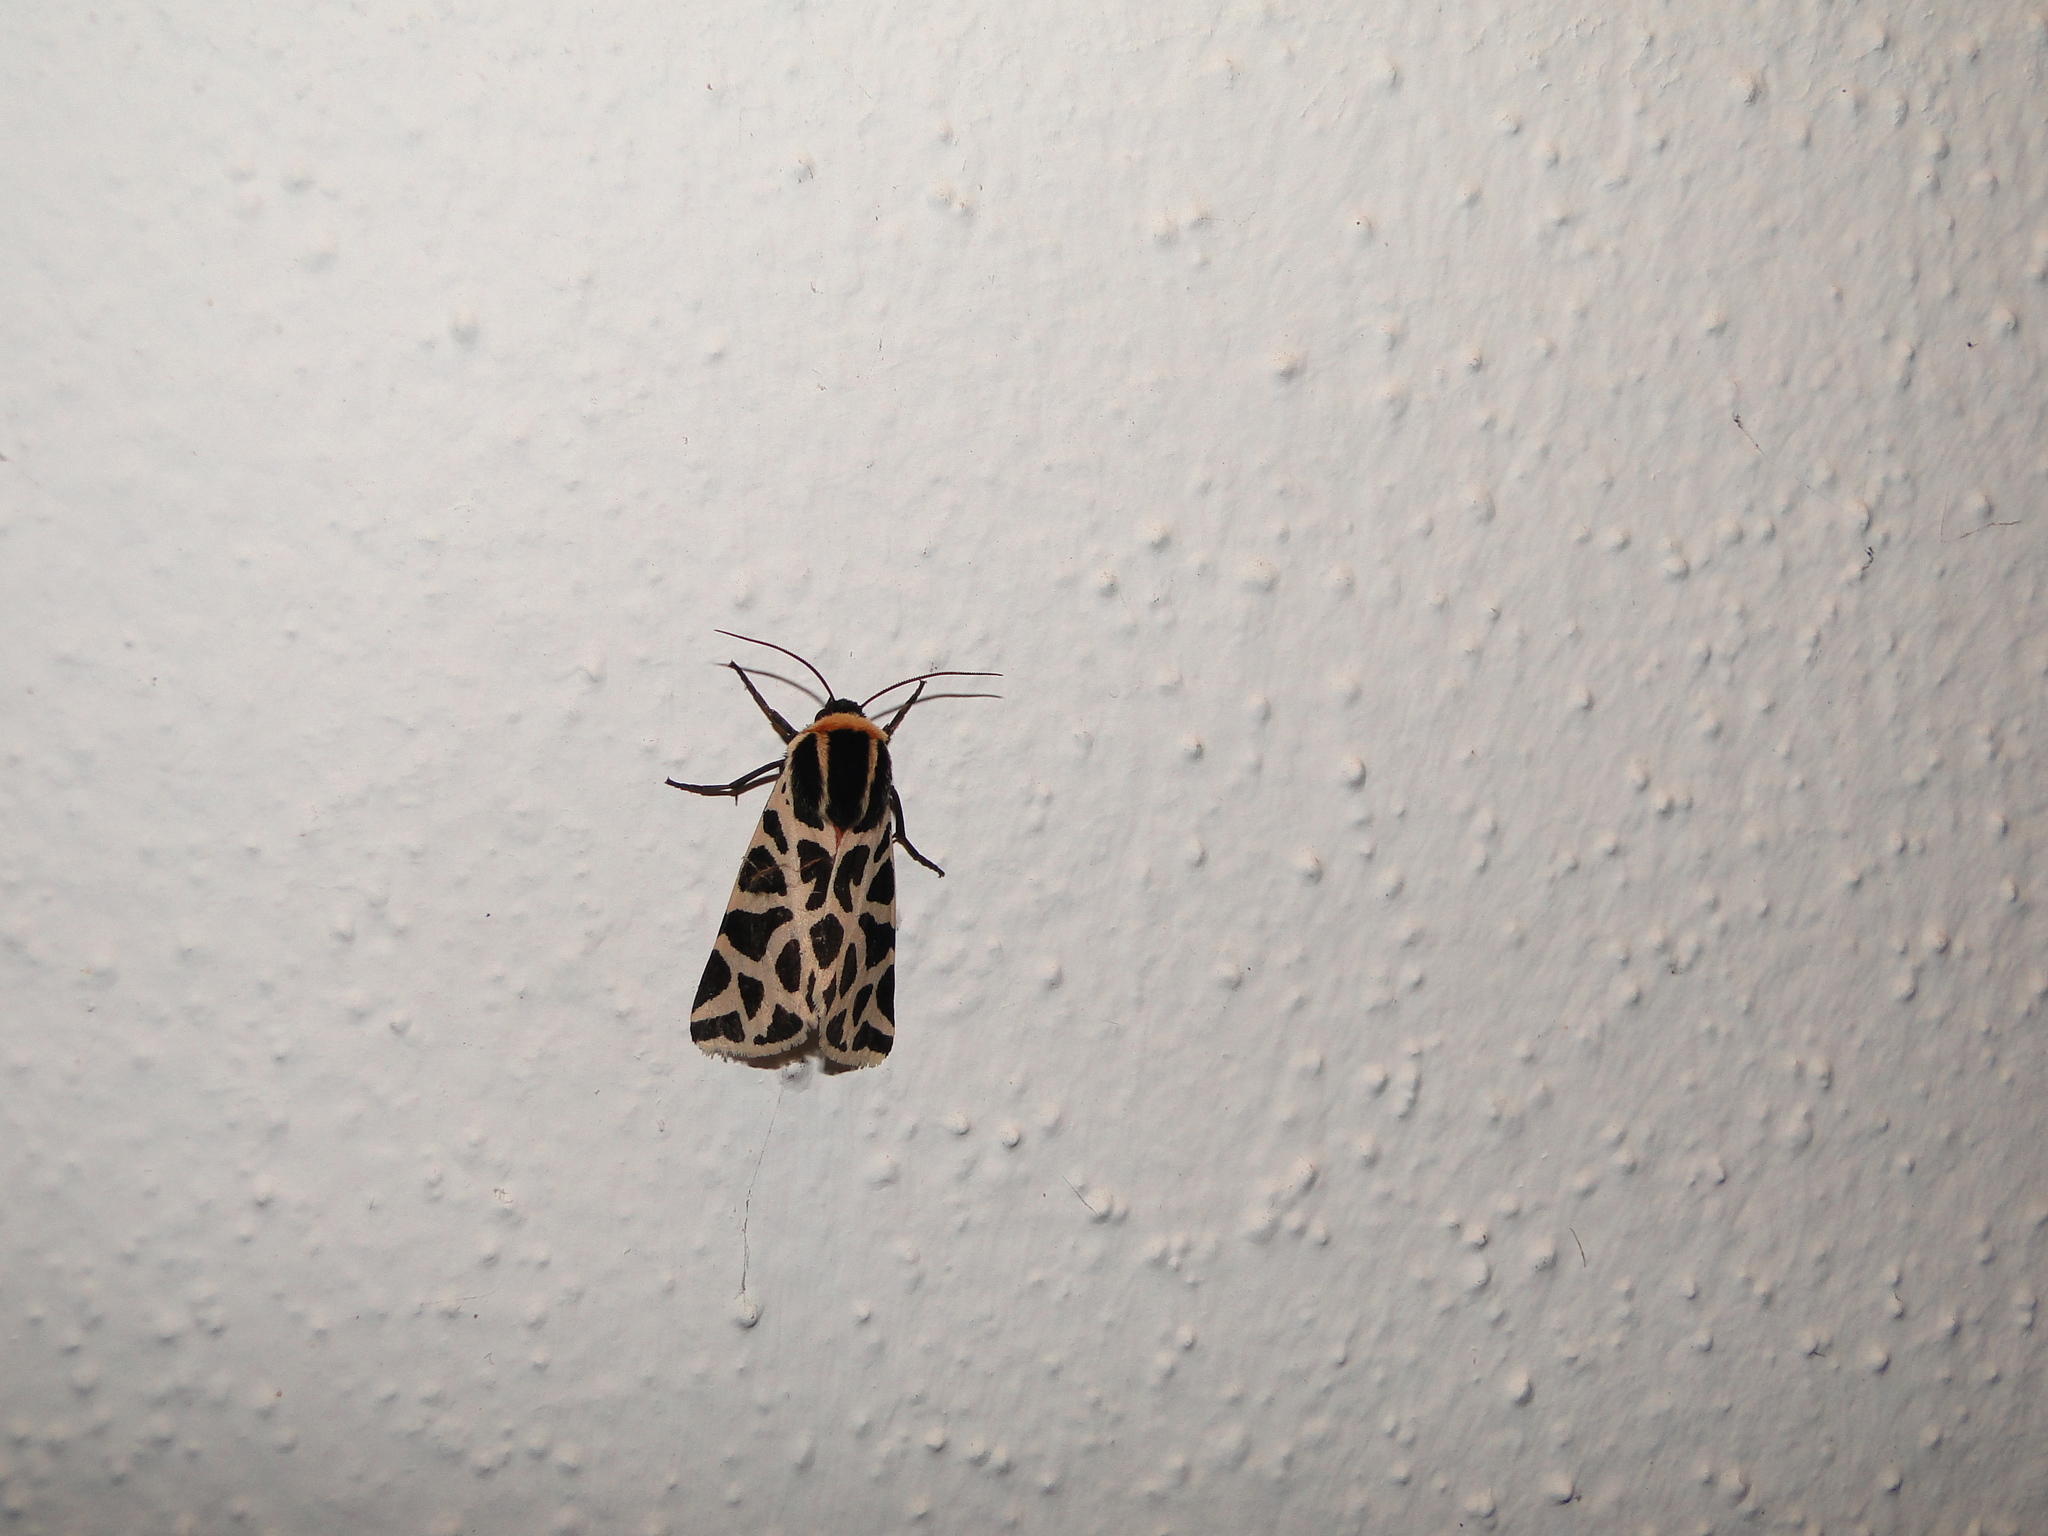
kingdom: Animalia
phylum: Arthropoda
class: Insecta
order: Lepidoptera
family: Erebidae
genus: Cymbalophora
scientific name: Cymbalophora pudica
